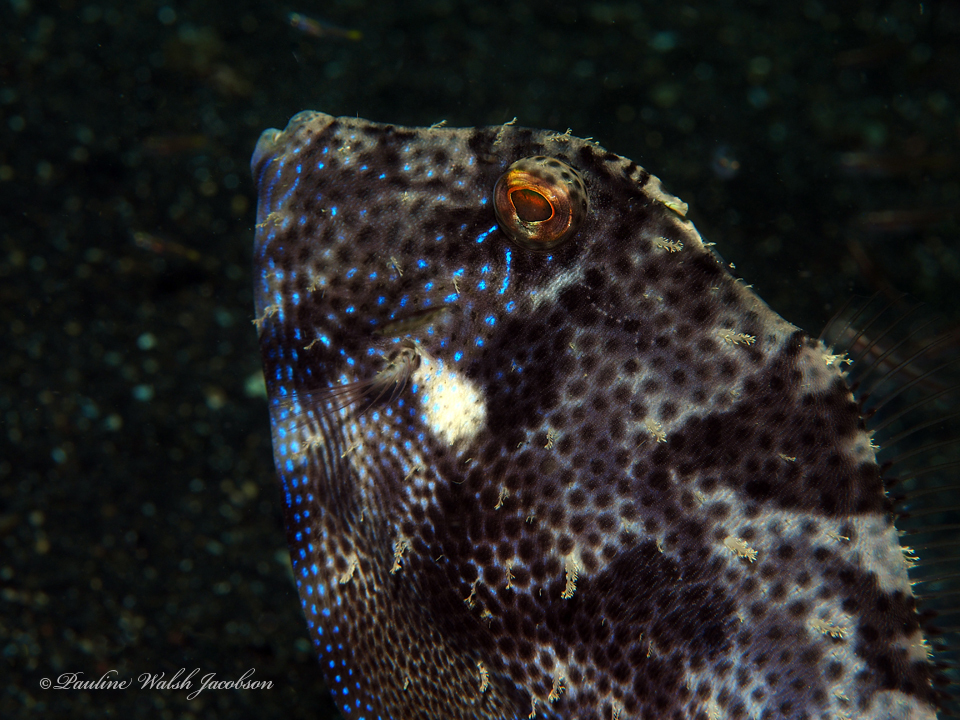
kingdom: Animalia
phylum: Chordata
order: Tetraodontiformes
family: Monacanthidae
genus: Pseudomonacanthus
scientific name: Pseudomonacanthus macrurus
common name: Blotchy filefish
